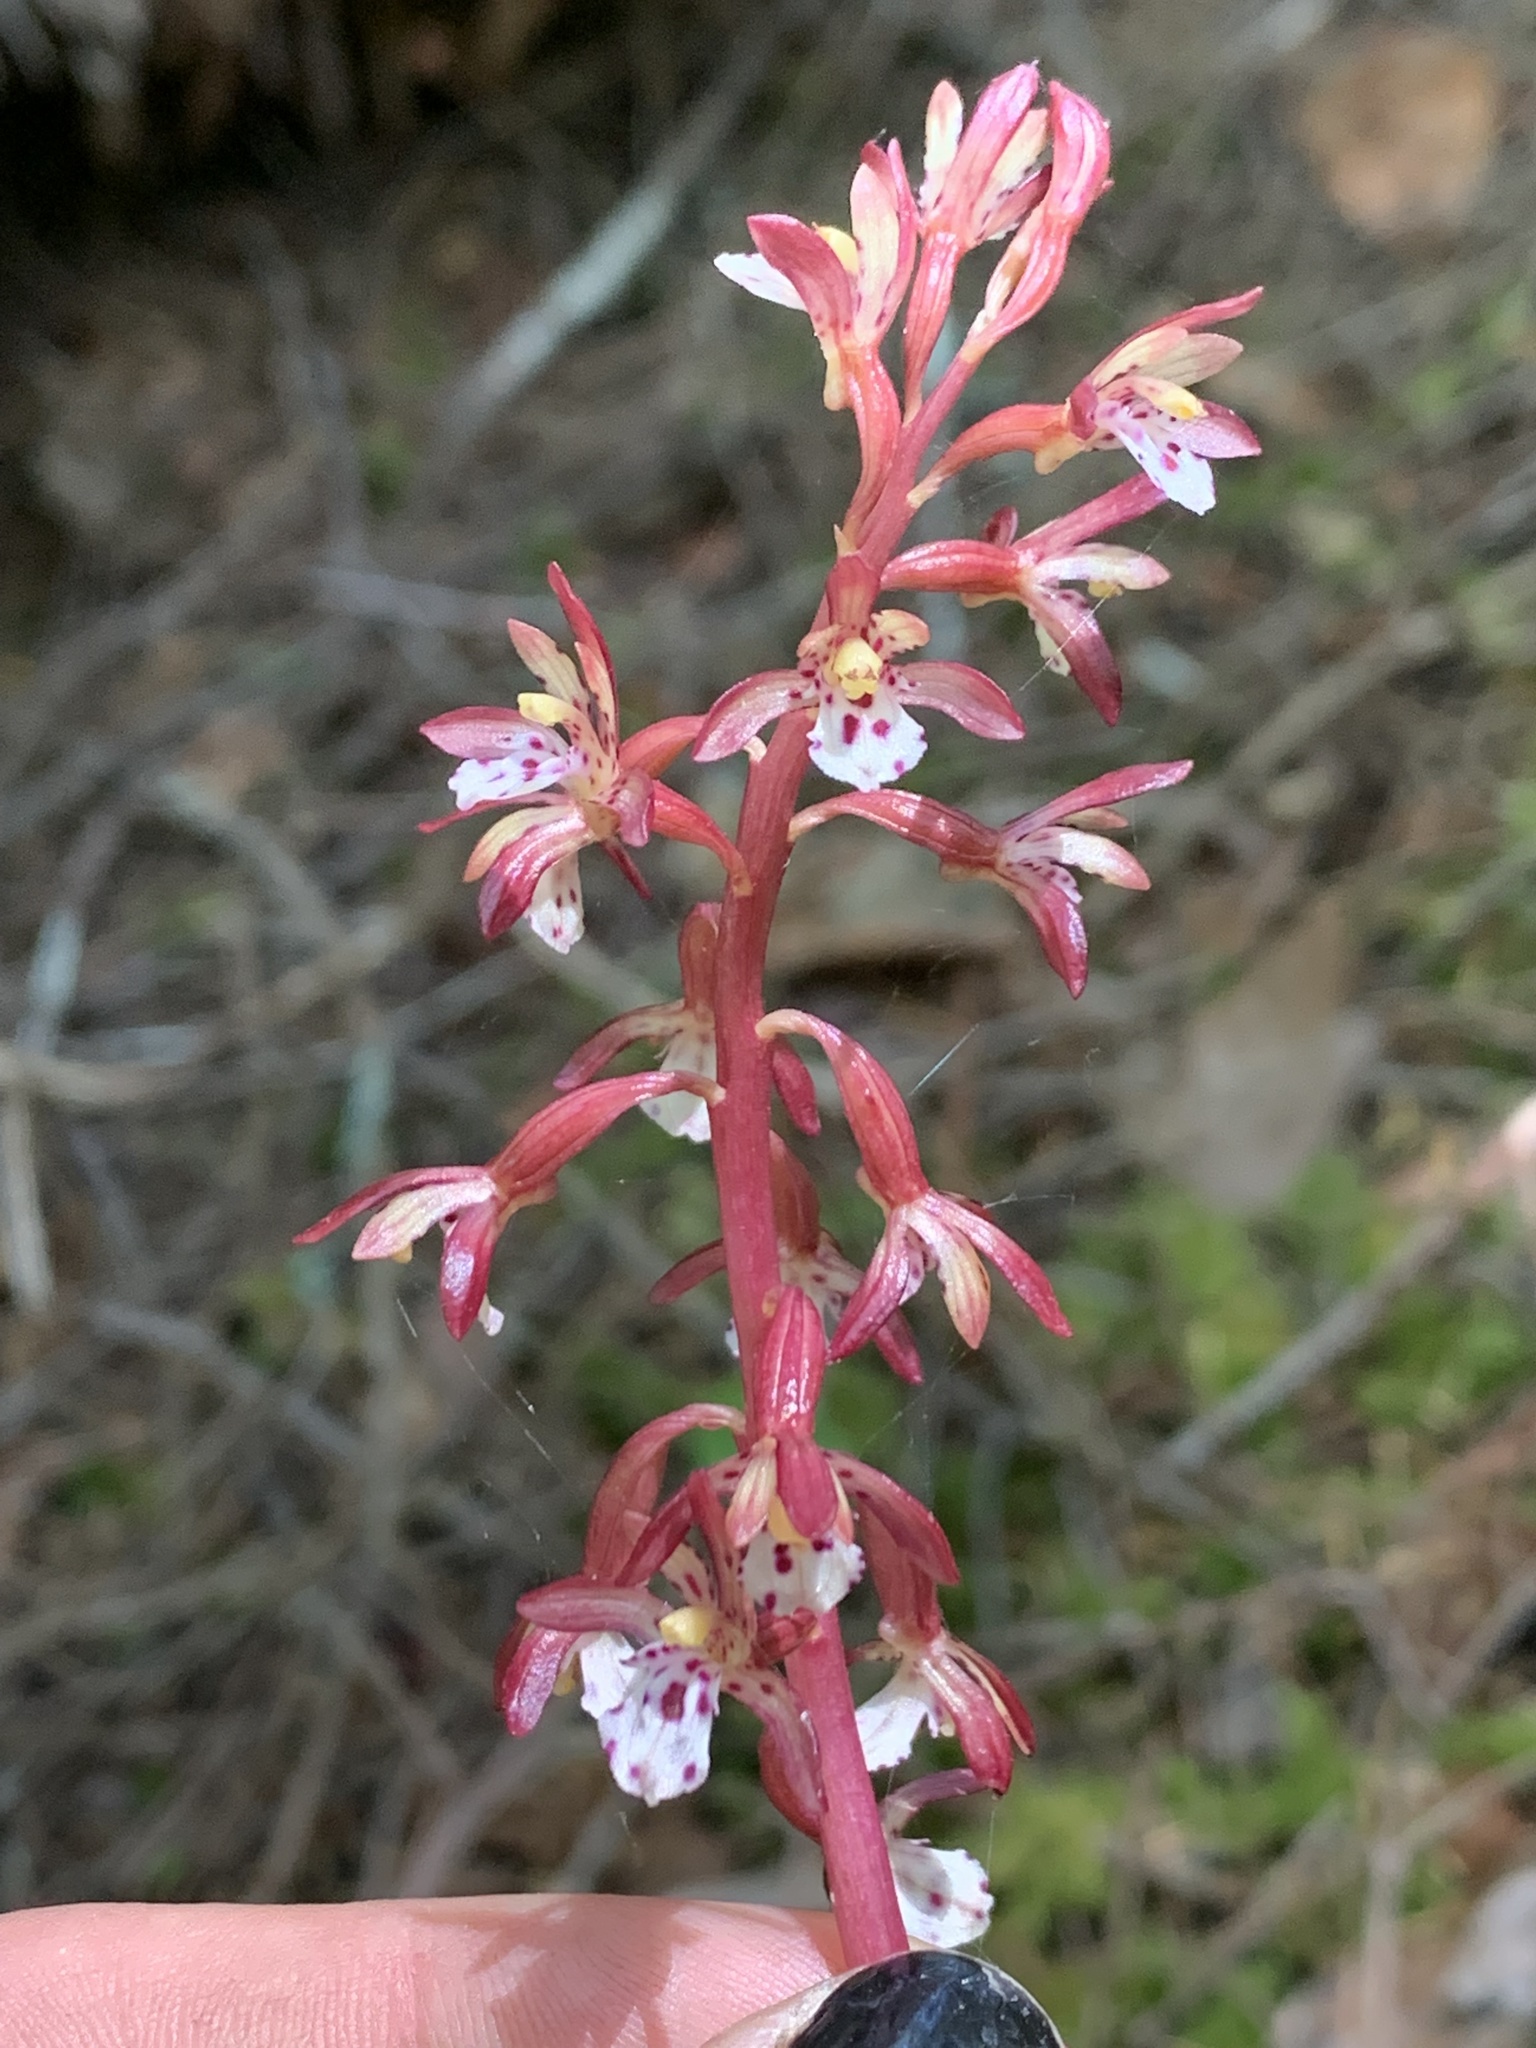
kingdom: Plantae
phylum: Tracheophyta
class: Liliopsida
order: Asparagales
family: Orchidaceae
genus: Corallorhiza
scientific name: Corallorhiza maculata
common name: Spotted coralroot
